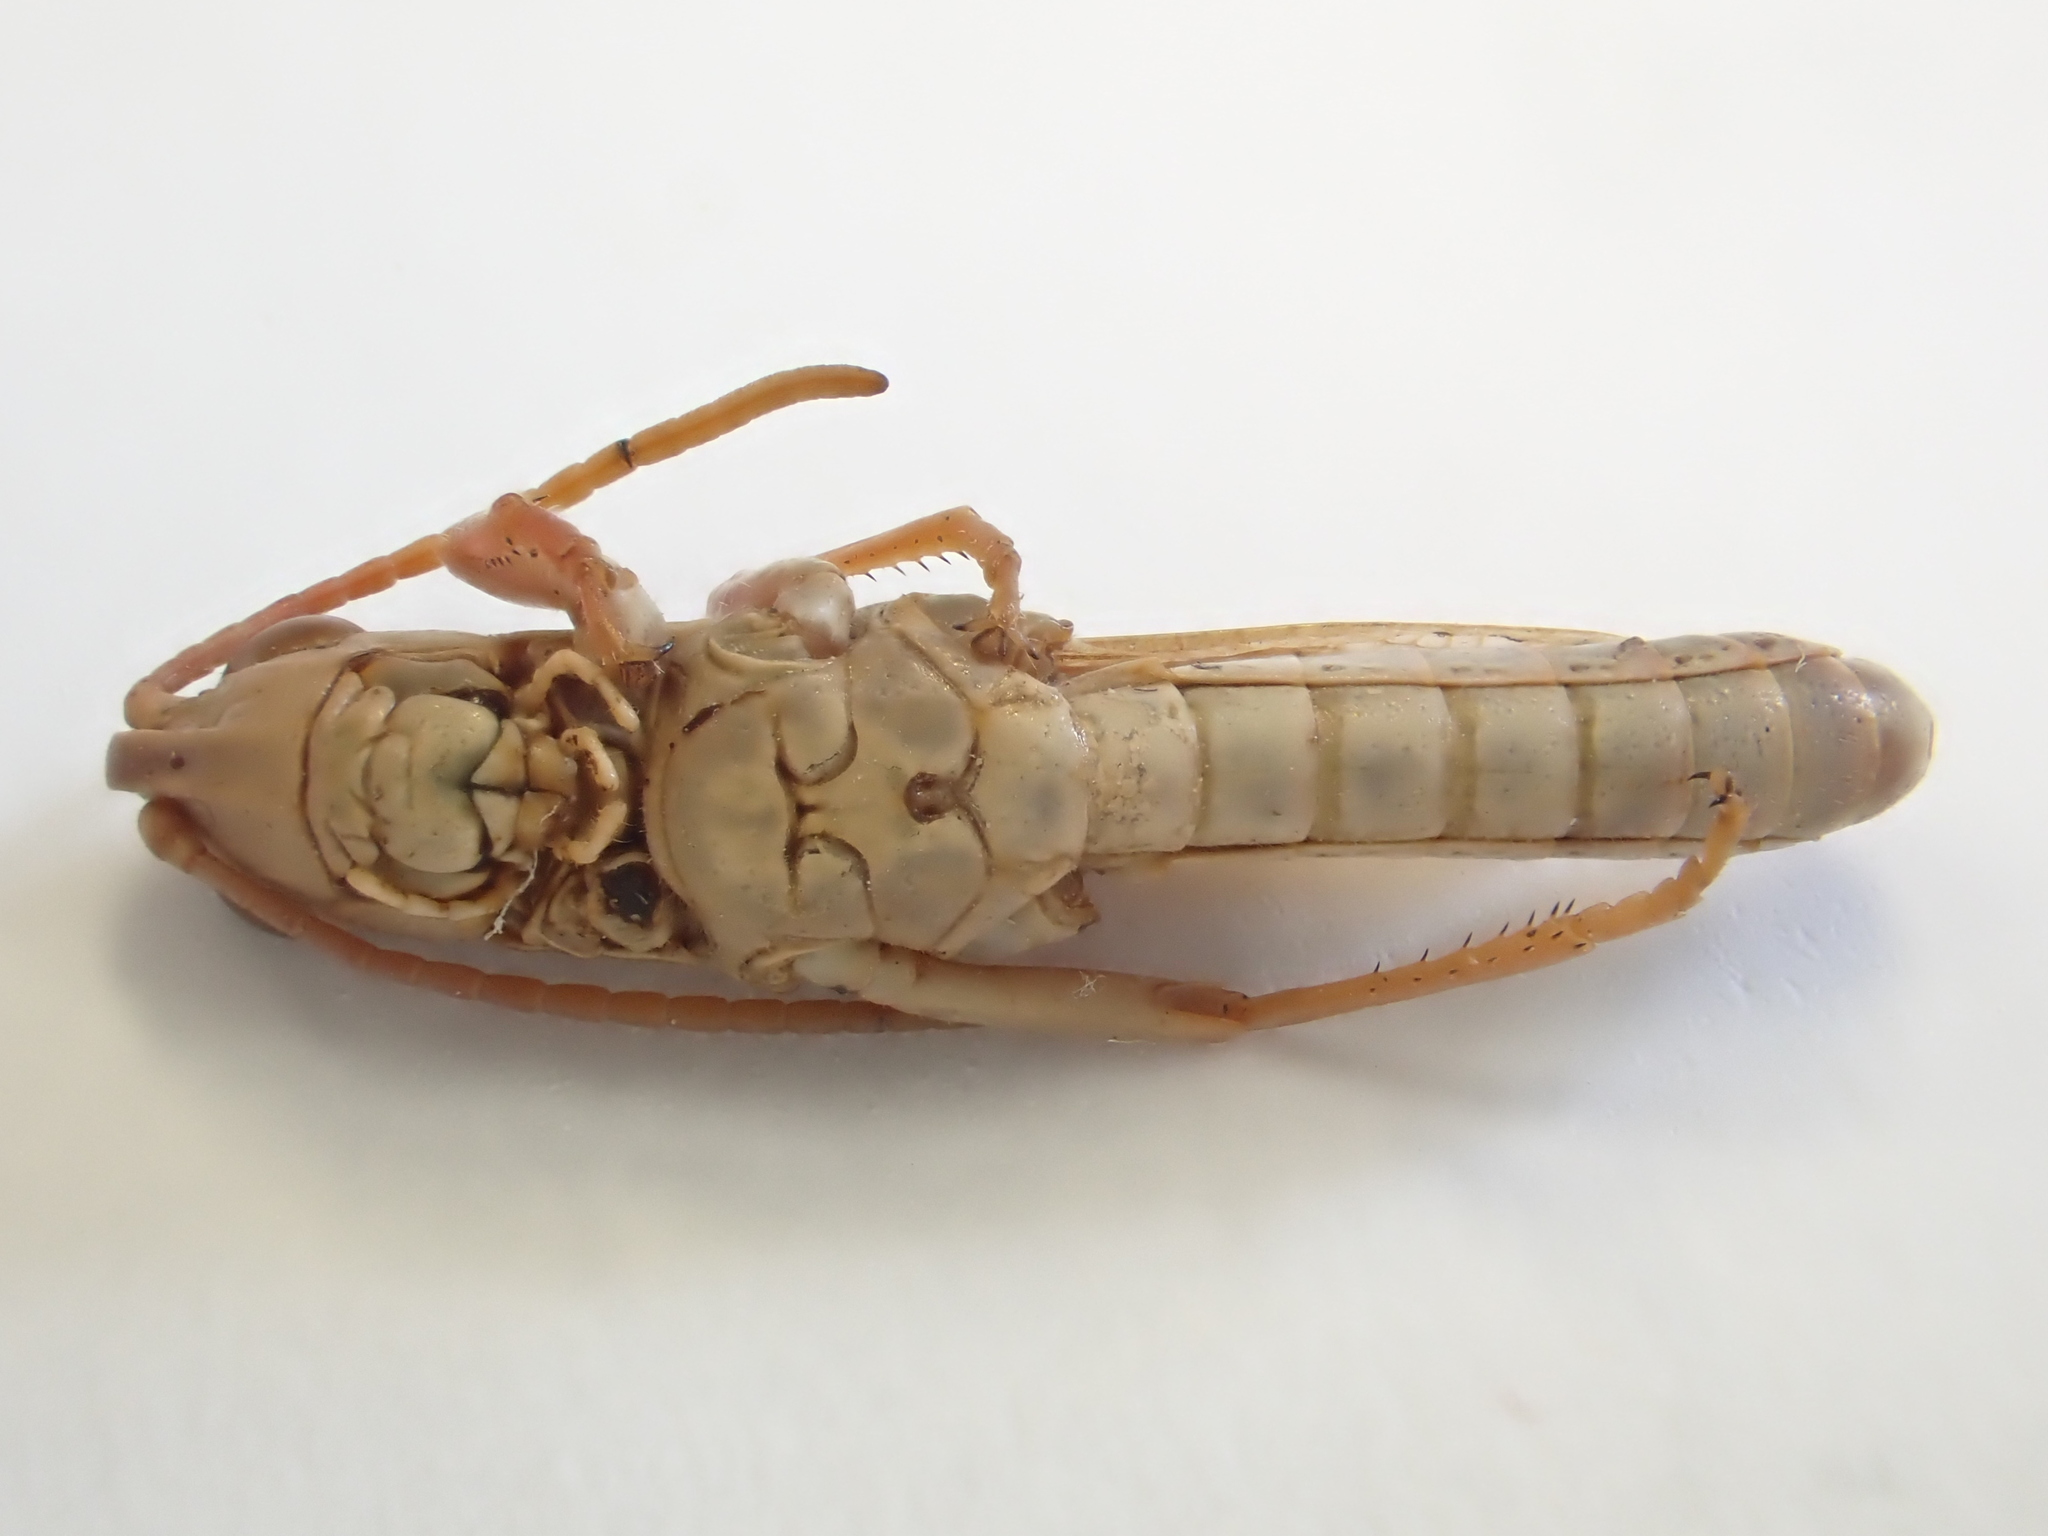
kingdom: Animalia
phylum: Arthropoda
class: Insecta
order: Orthoptera
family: Acrididae
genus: Pseudochorthippus
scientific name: Pseudochorthippus parallelus
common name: Meadow grasshopper
